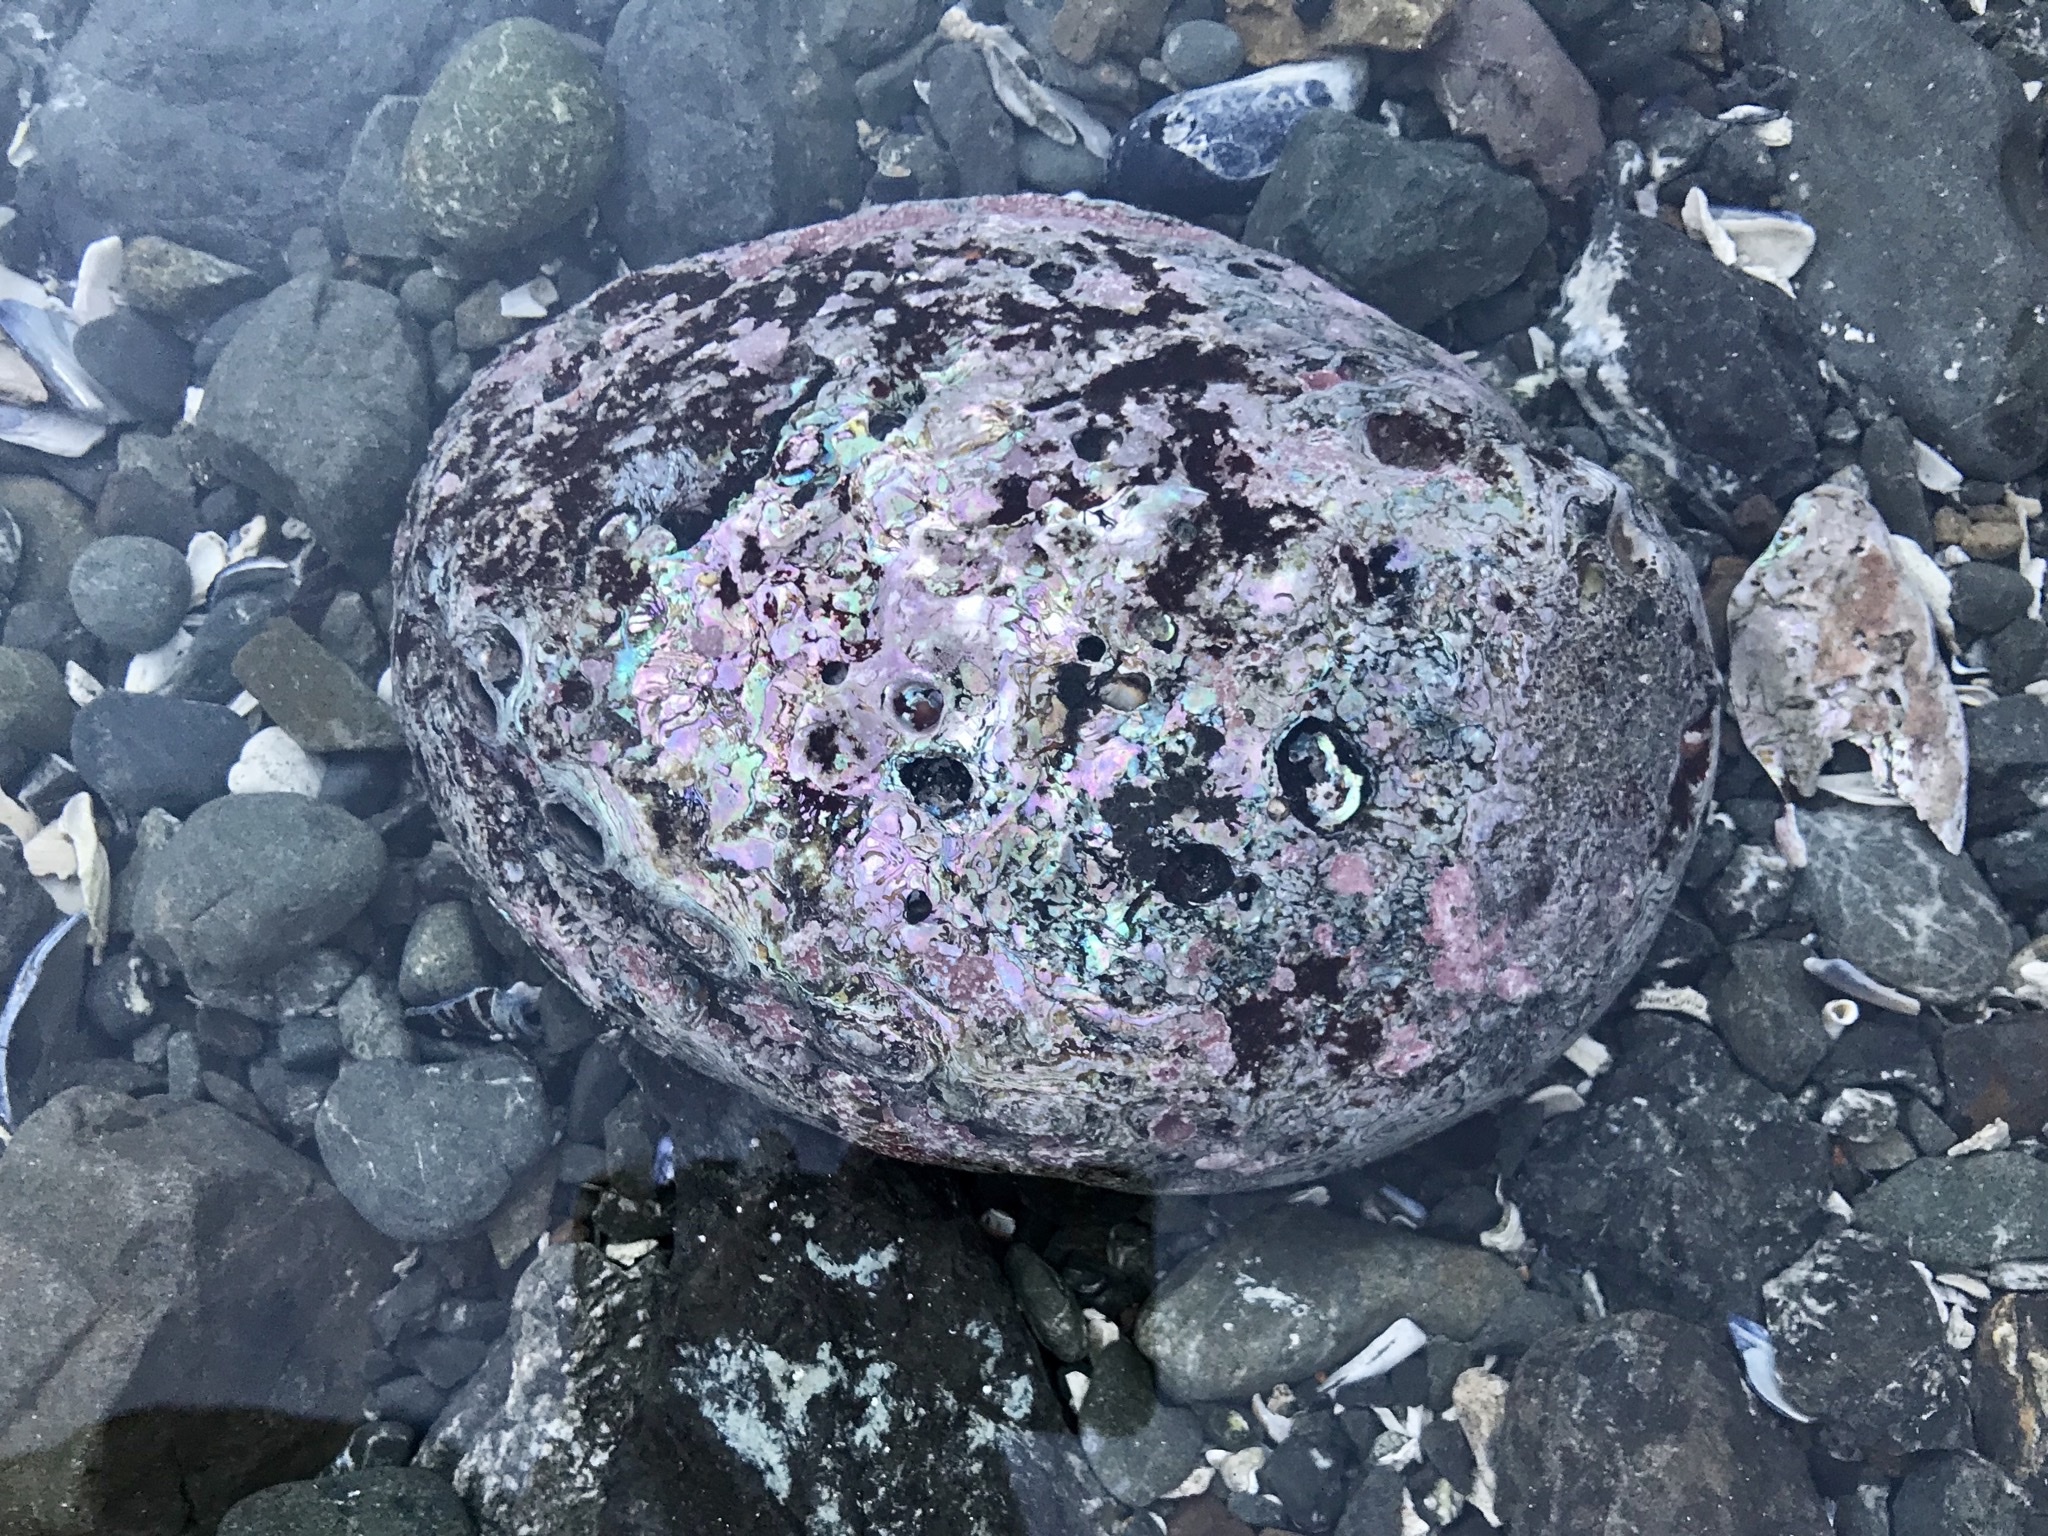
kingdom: Animalia
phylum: Mollusca
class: Gastropoda
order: Lepetellida
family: Haliotidae
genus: Haliotis
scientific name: Haliotis rufescens
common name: Red abalone
